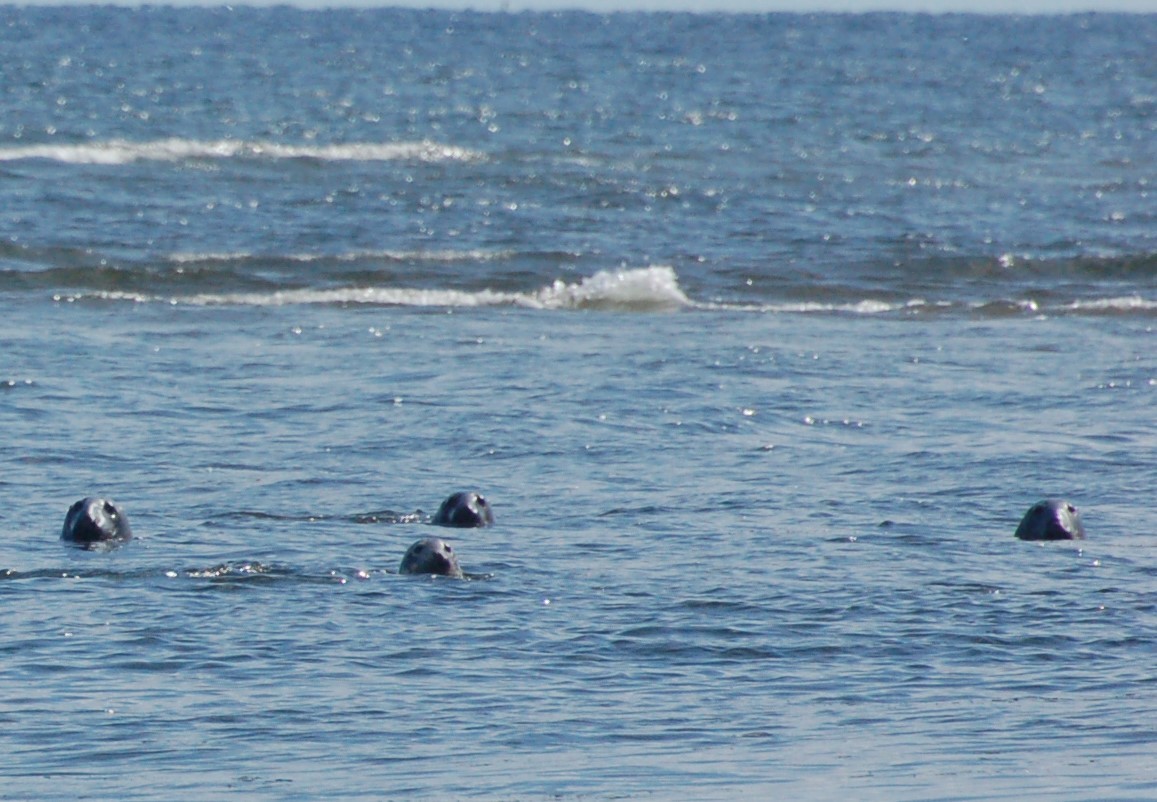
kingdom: Animalia
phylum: Chordata
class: Mammalia
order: Carnivora
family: Phocidae
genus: Halichoerus
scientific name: Halichoerus grypus
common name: Grey seal
